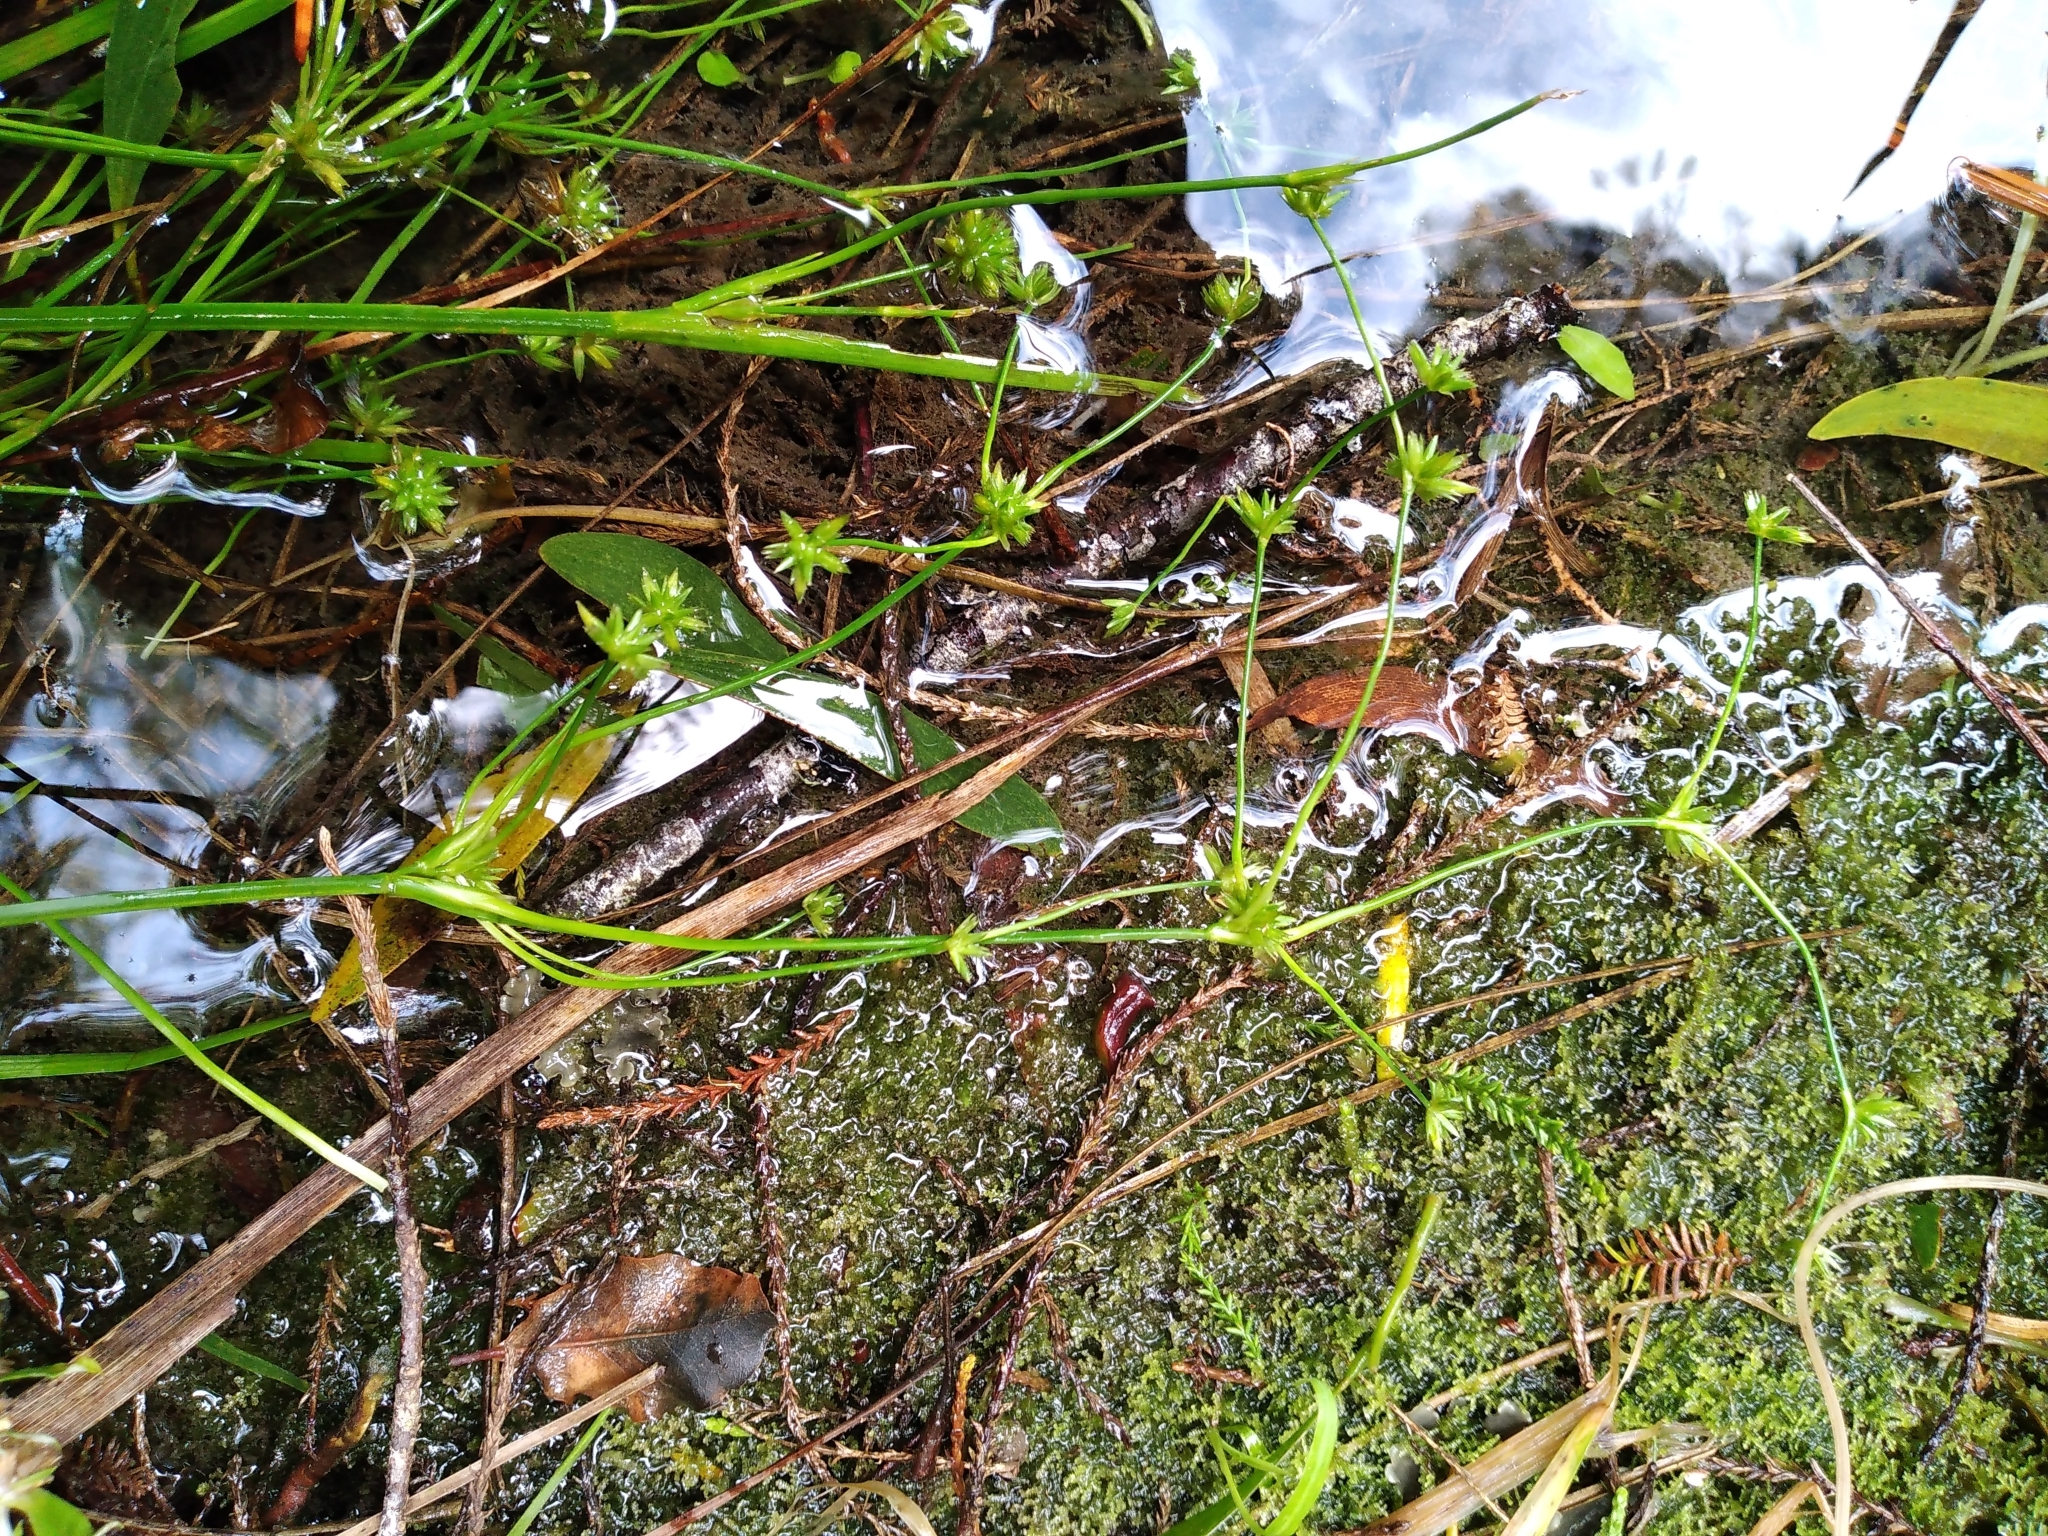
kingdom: Plantae
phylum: Tracheophyta
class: Liliopsida
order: Poales
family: Juncaceae
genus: Juncus
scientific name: Juncus prismatocarpus
